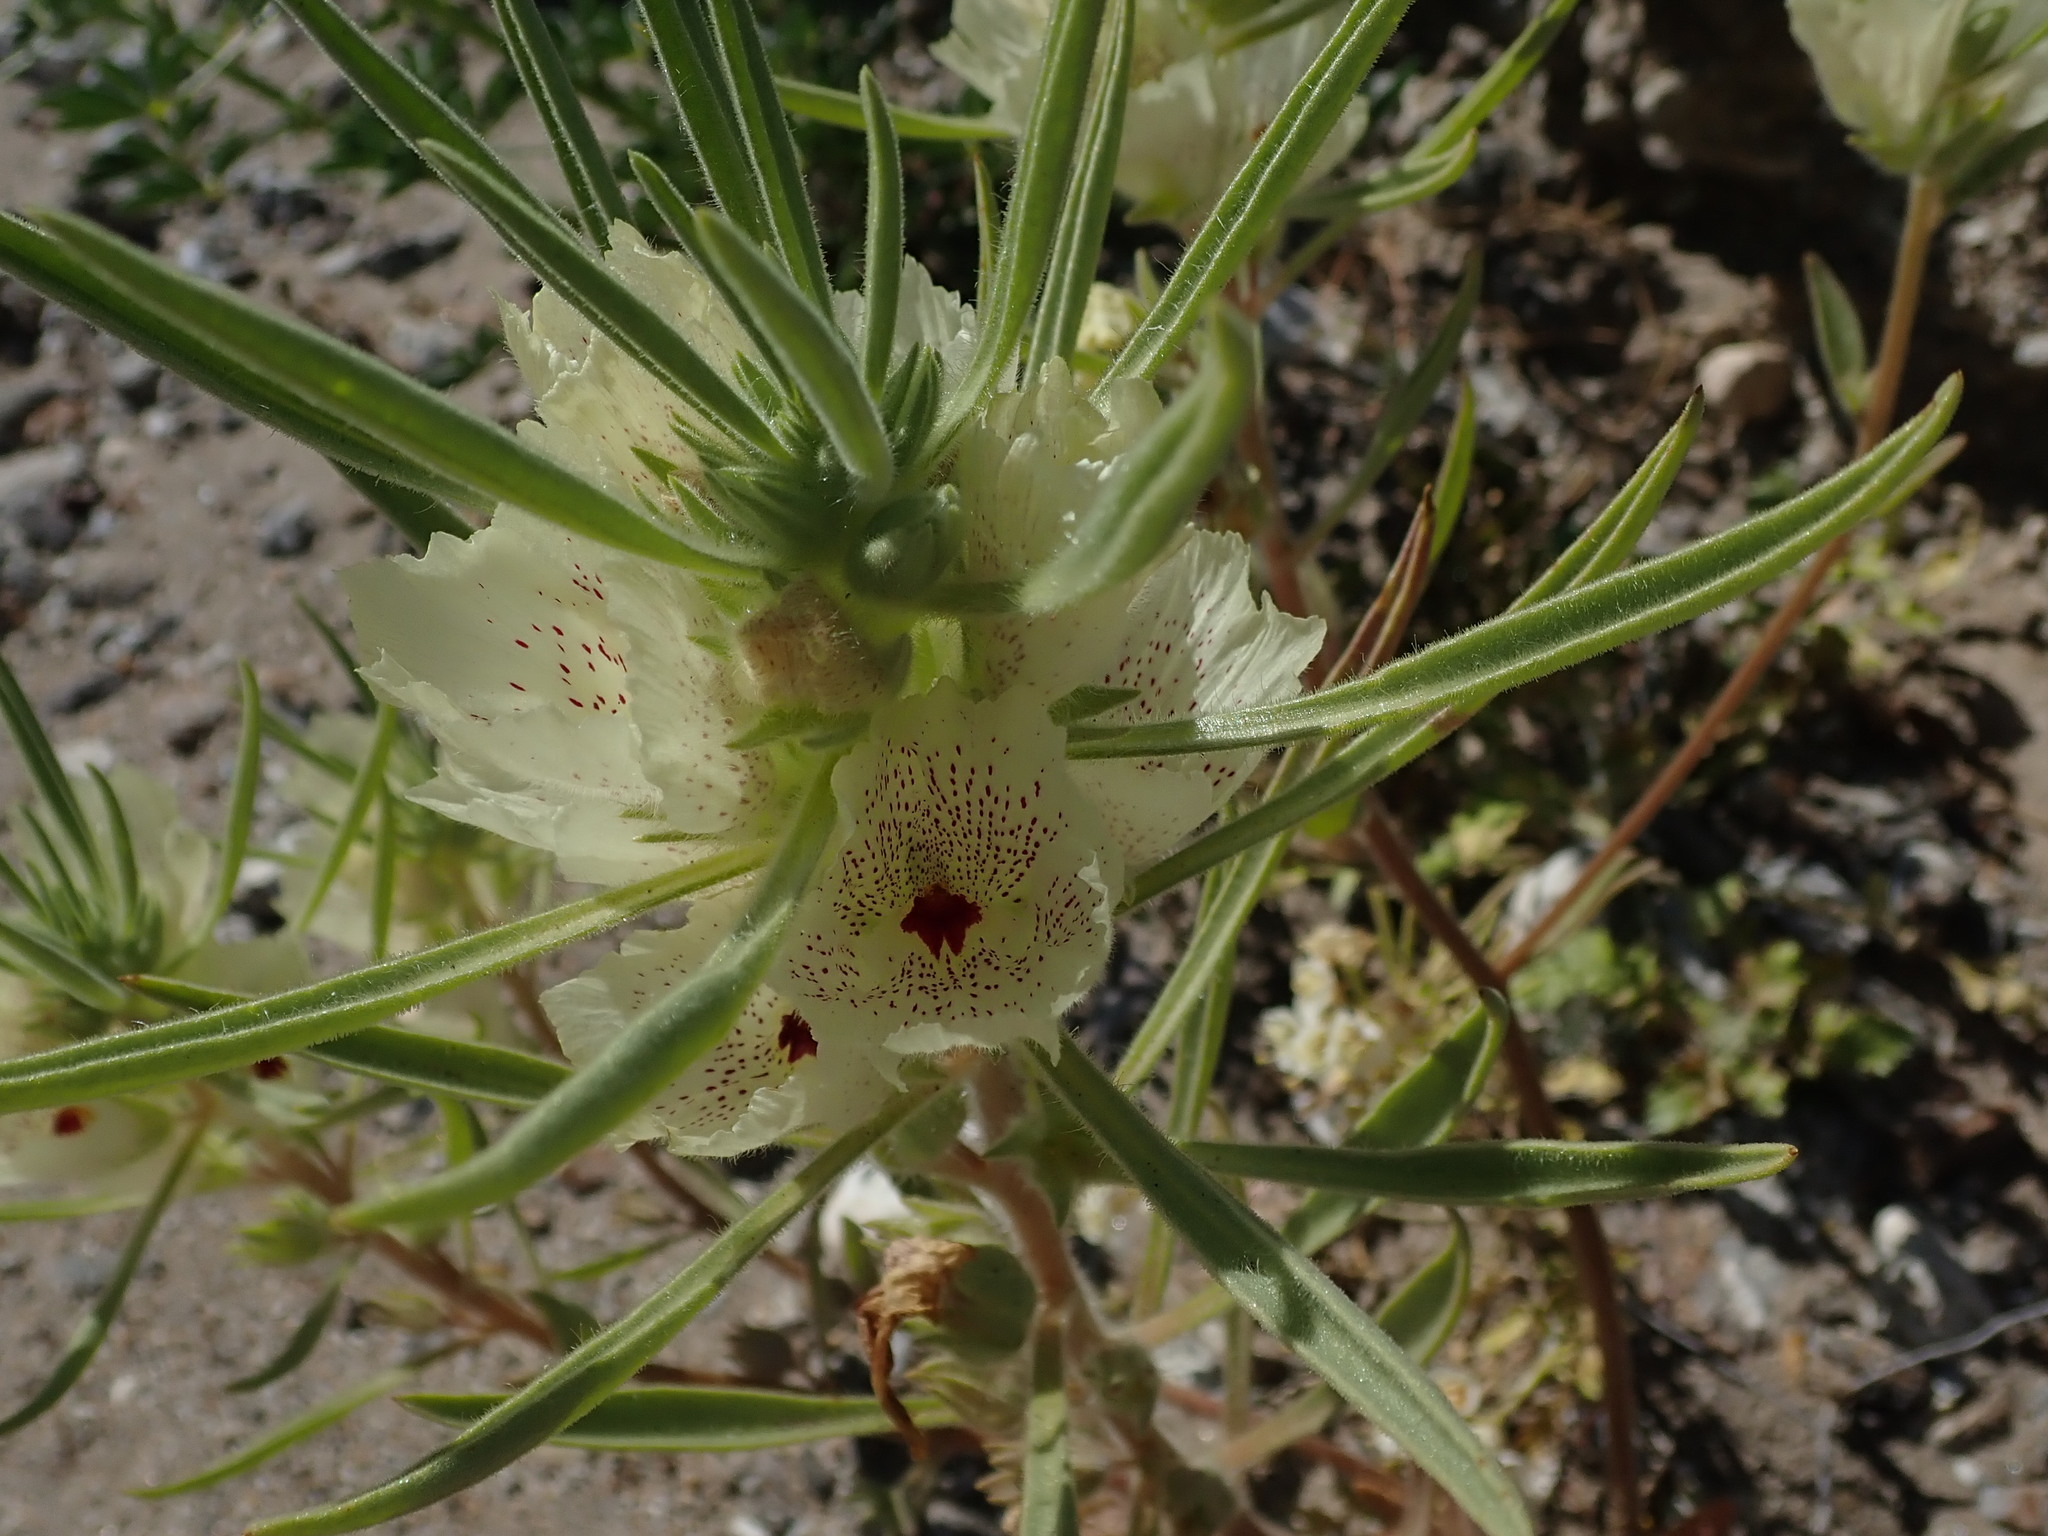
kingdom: Plantae
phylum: Tracheophyta
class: Magnoliopsida
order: Lamiales
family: Plantaginaceae
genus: Mohavea
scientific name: Mohavea confertiflora
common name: Ghost flower
